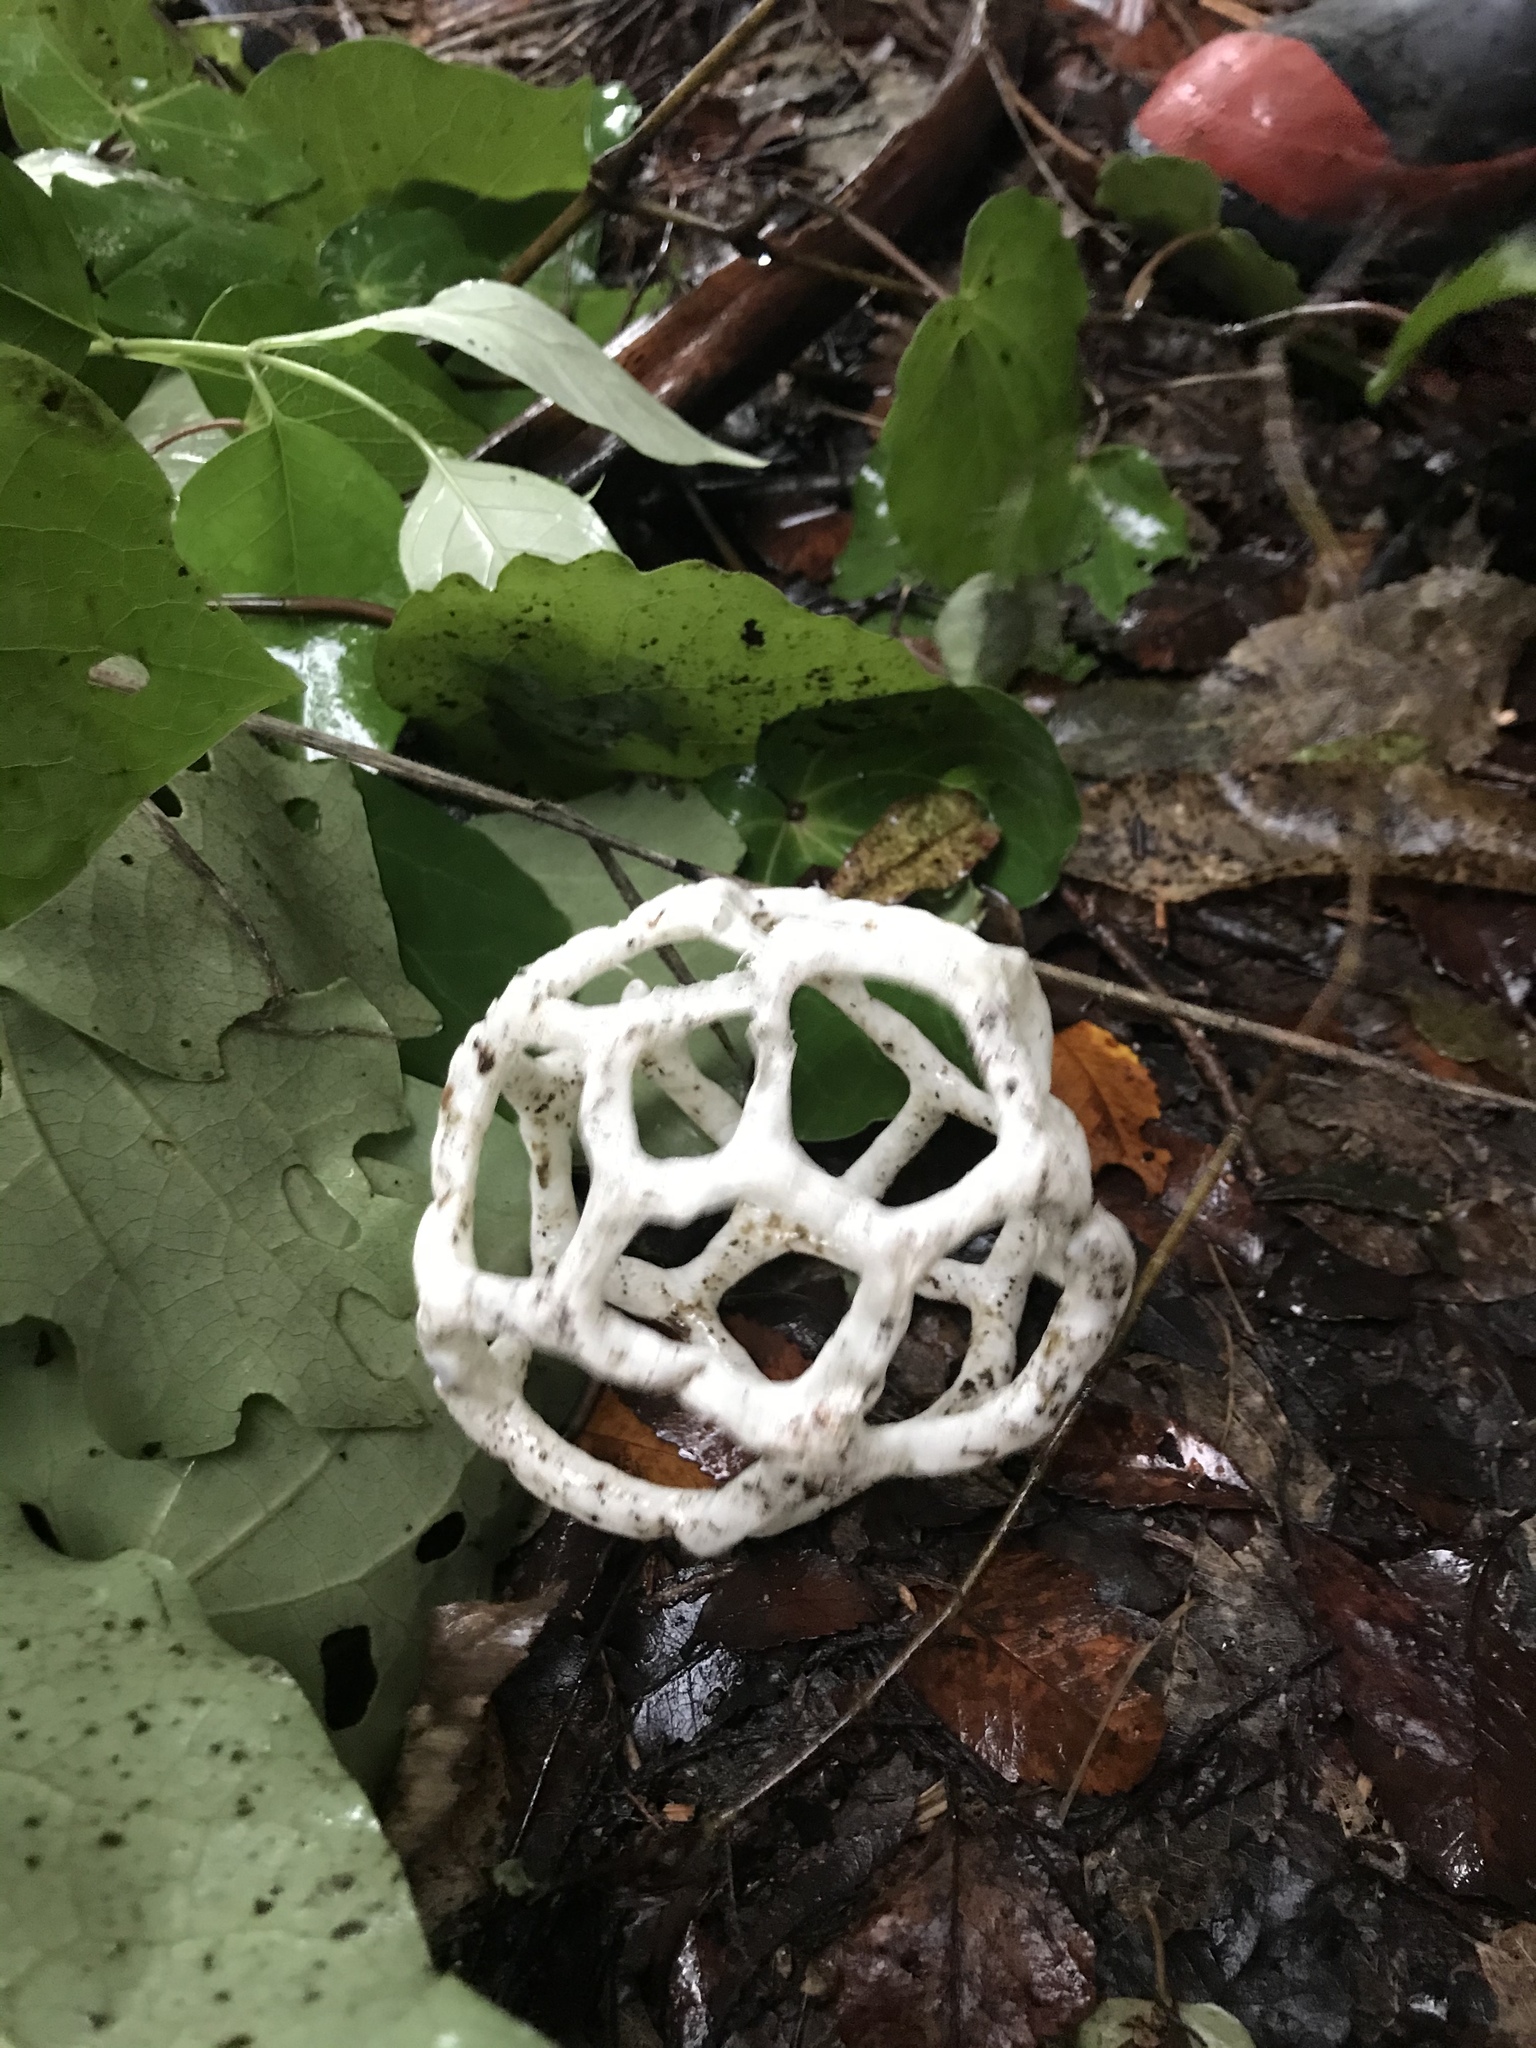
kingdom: Fungi
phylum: Basidiomycota
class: Agaricomycetes
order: Phallales
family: Phallaceae
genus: Ileodictyon
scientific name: Ileodictyon cibarium
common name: Basket fungus
